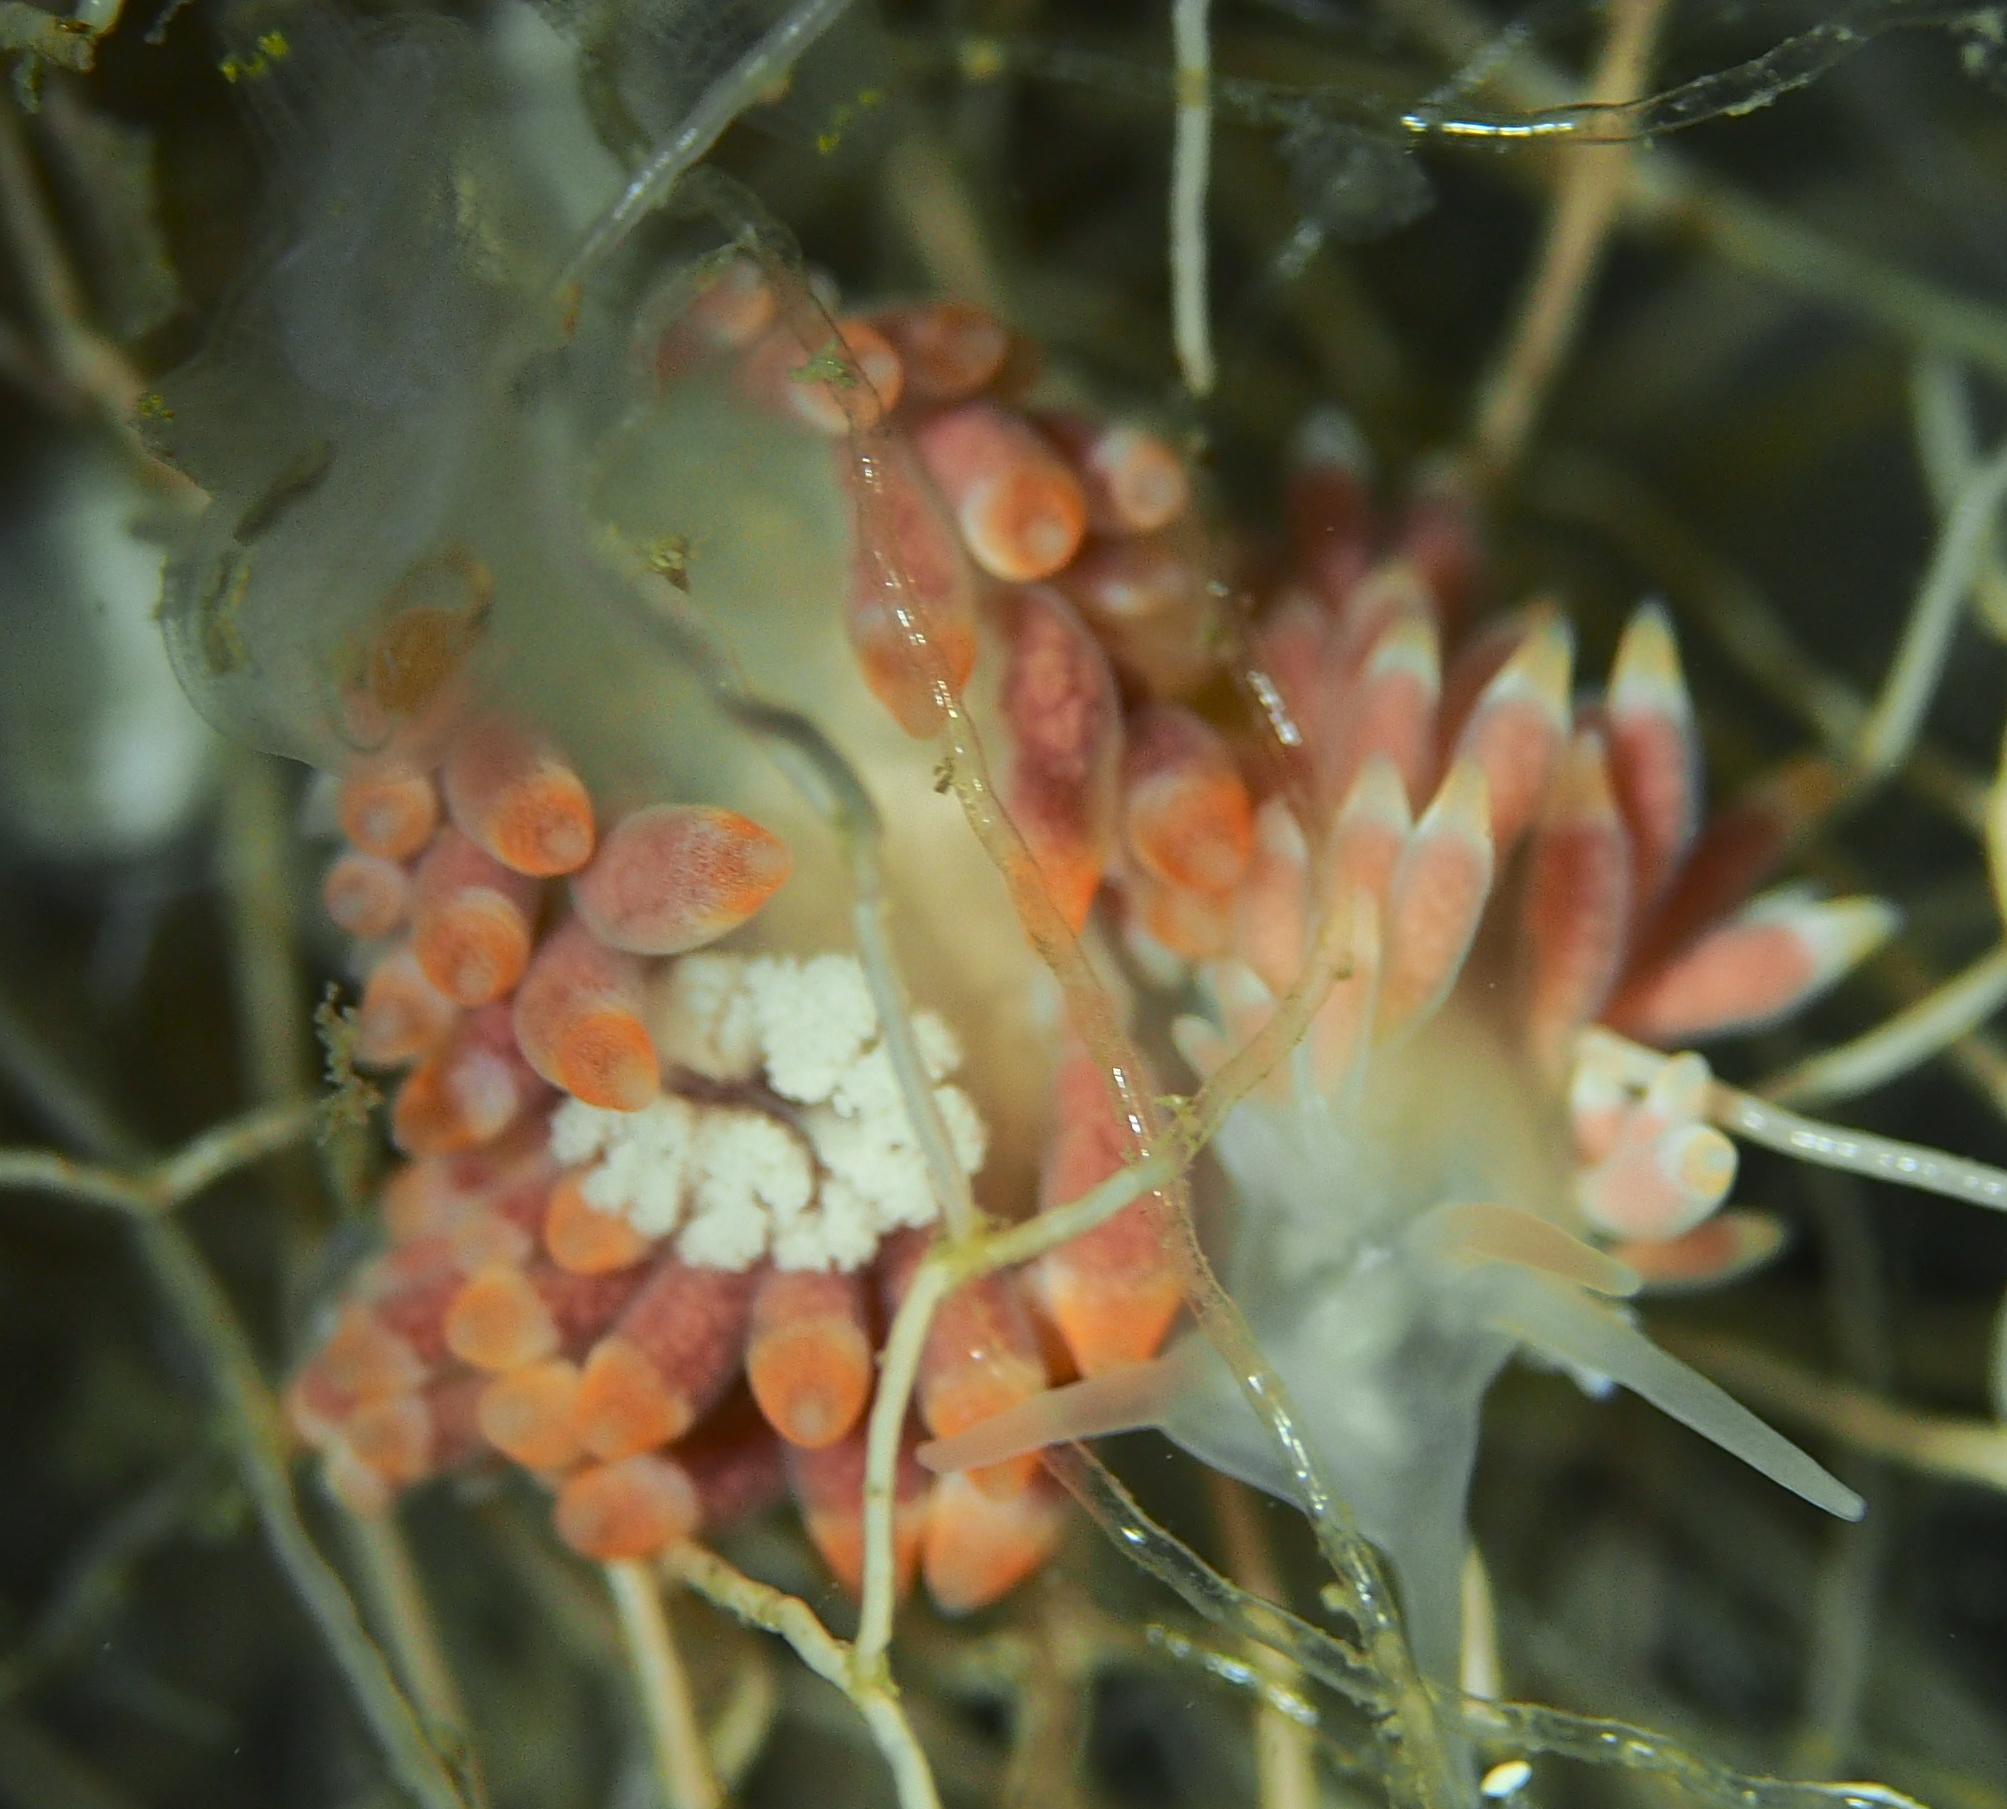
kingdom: Animalia
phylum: Mollusca
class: Gastropoda
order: Nudibranchia
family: Trinchesiidae
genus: Catriona
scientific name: Catriona aurantia
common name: Corange-tip cuthona
